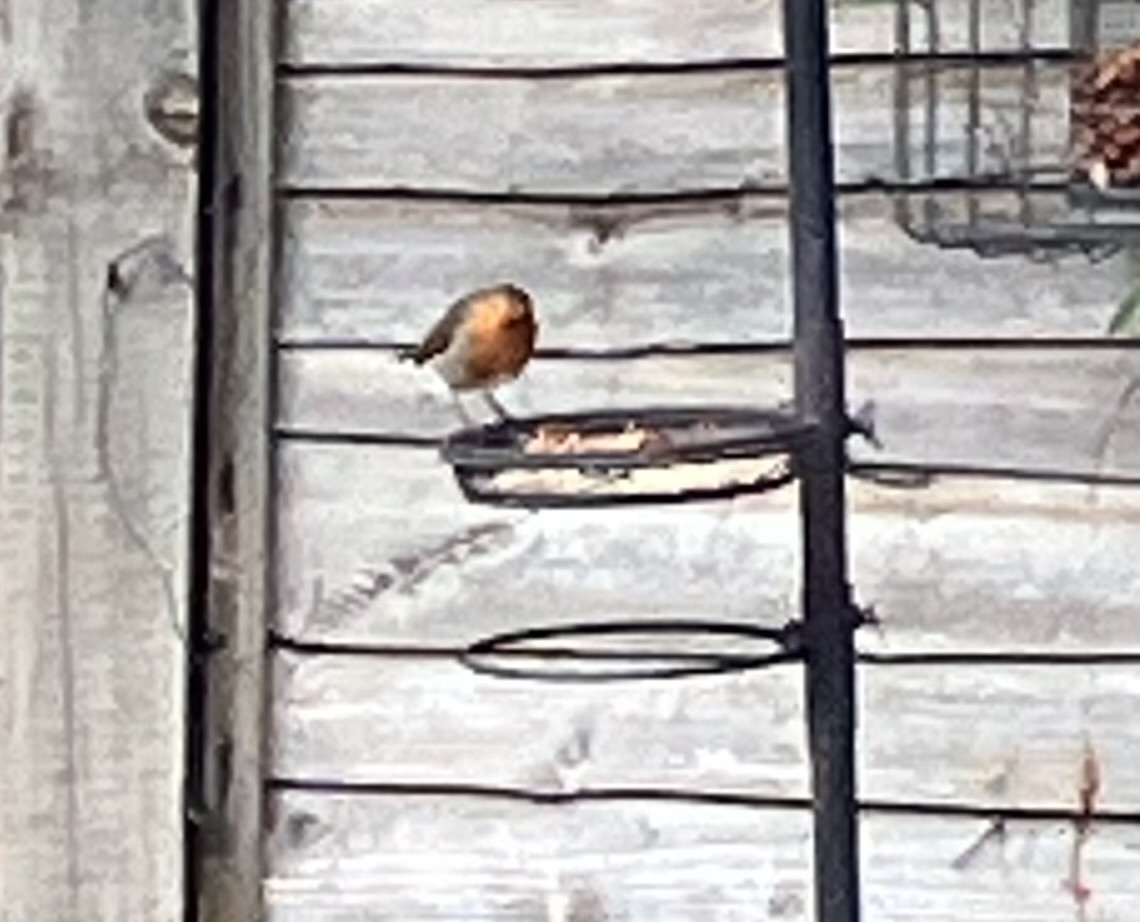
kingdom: Animalia
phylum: Chordata
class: Aves
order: Passeriformes
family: Muscicapidae
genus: Erithacus
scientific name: Erithacus rubecula
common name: European robin
